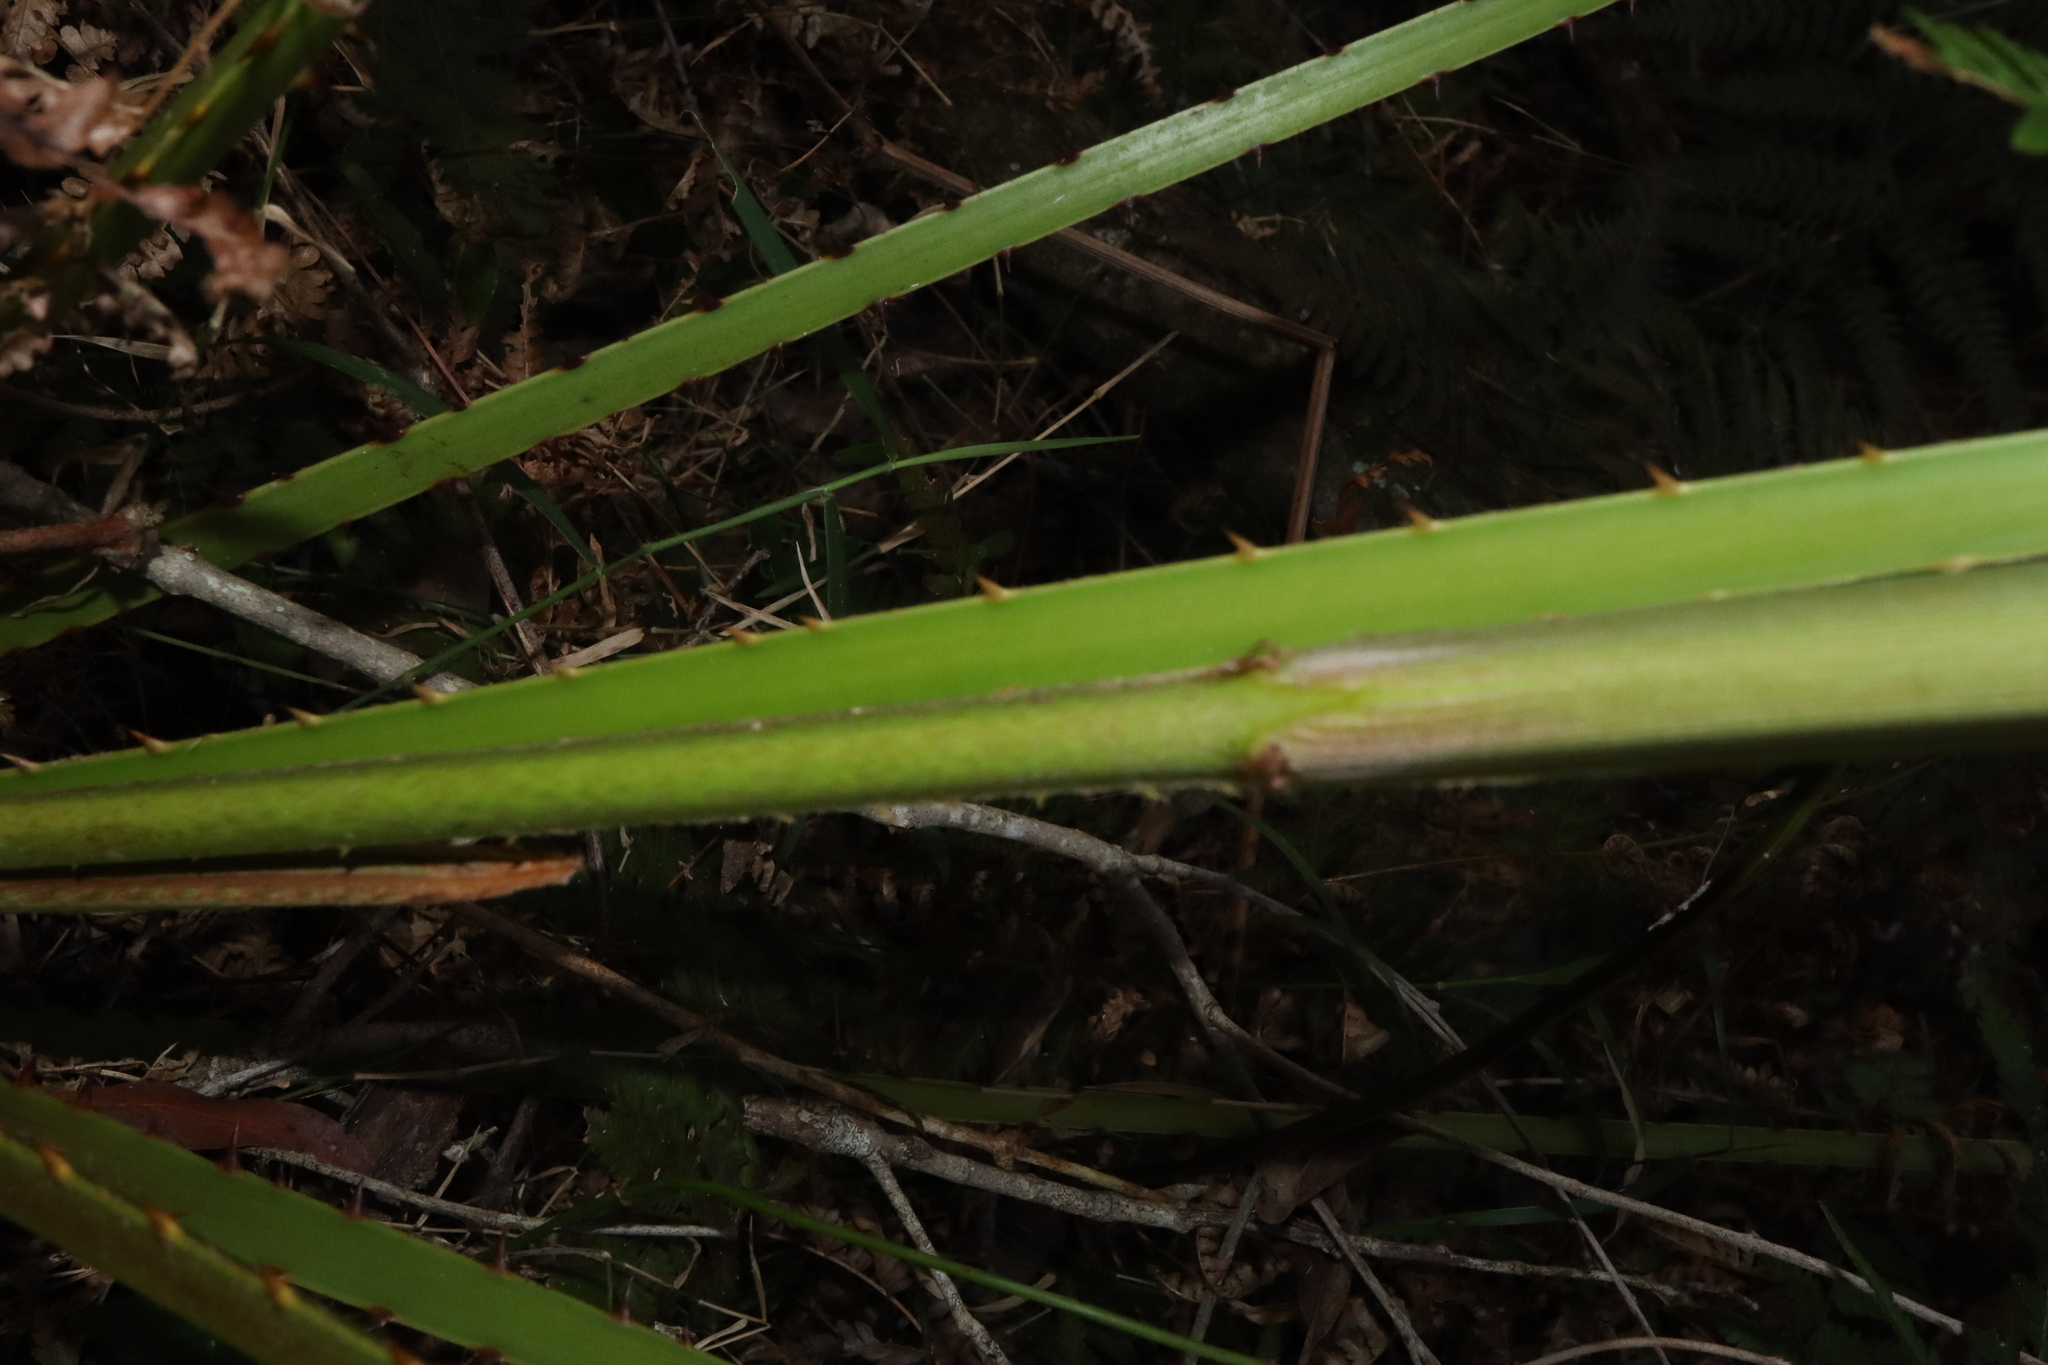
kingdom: Plantae
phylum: Tracheophyta
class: Liliopsida
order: Arecales
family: Arecaceae
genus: Livistona
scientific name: Livistona australis
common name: Cabbage fan palm
